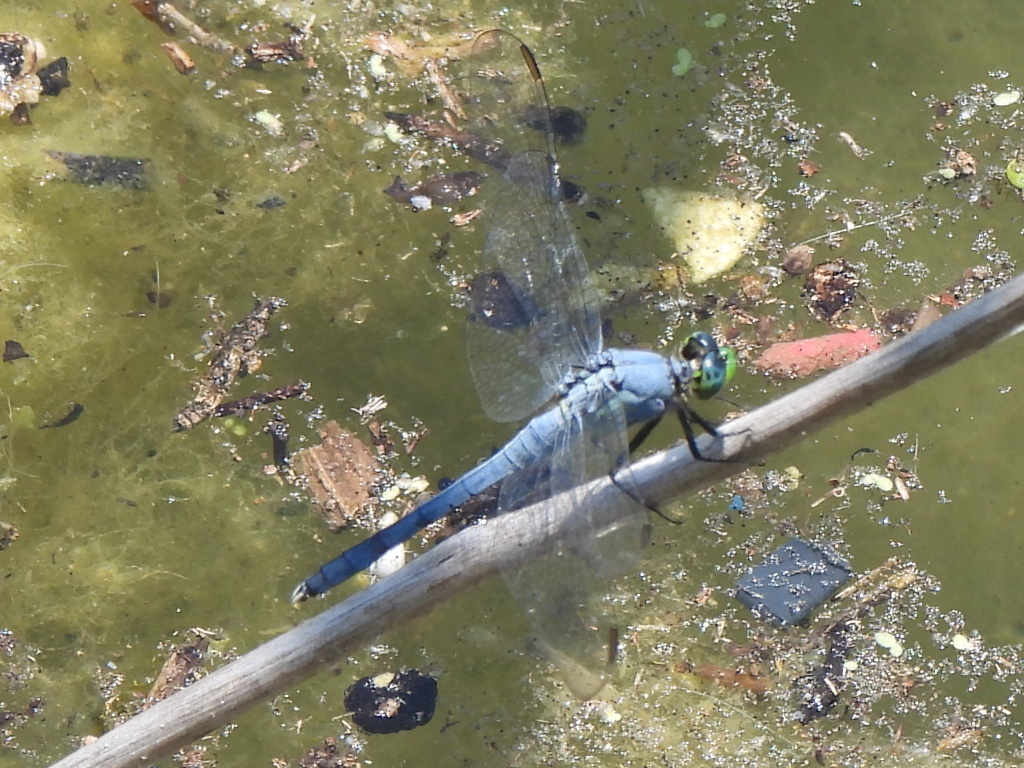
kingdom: Animalia
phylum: Arthropoda
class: Insecta
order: Odonata
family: Libellulidae
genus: Erythemis
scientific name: Erythemis simplicicollis
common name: Eastern pondhawk
